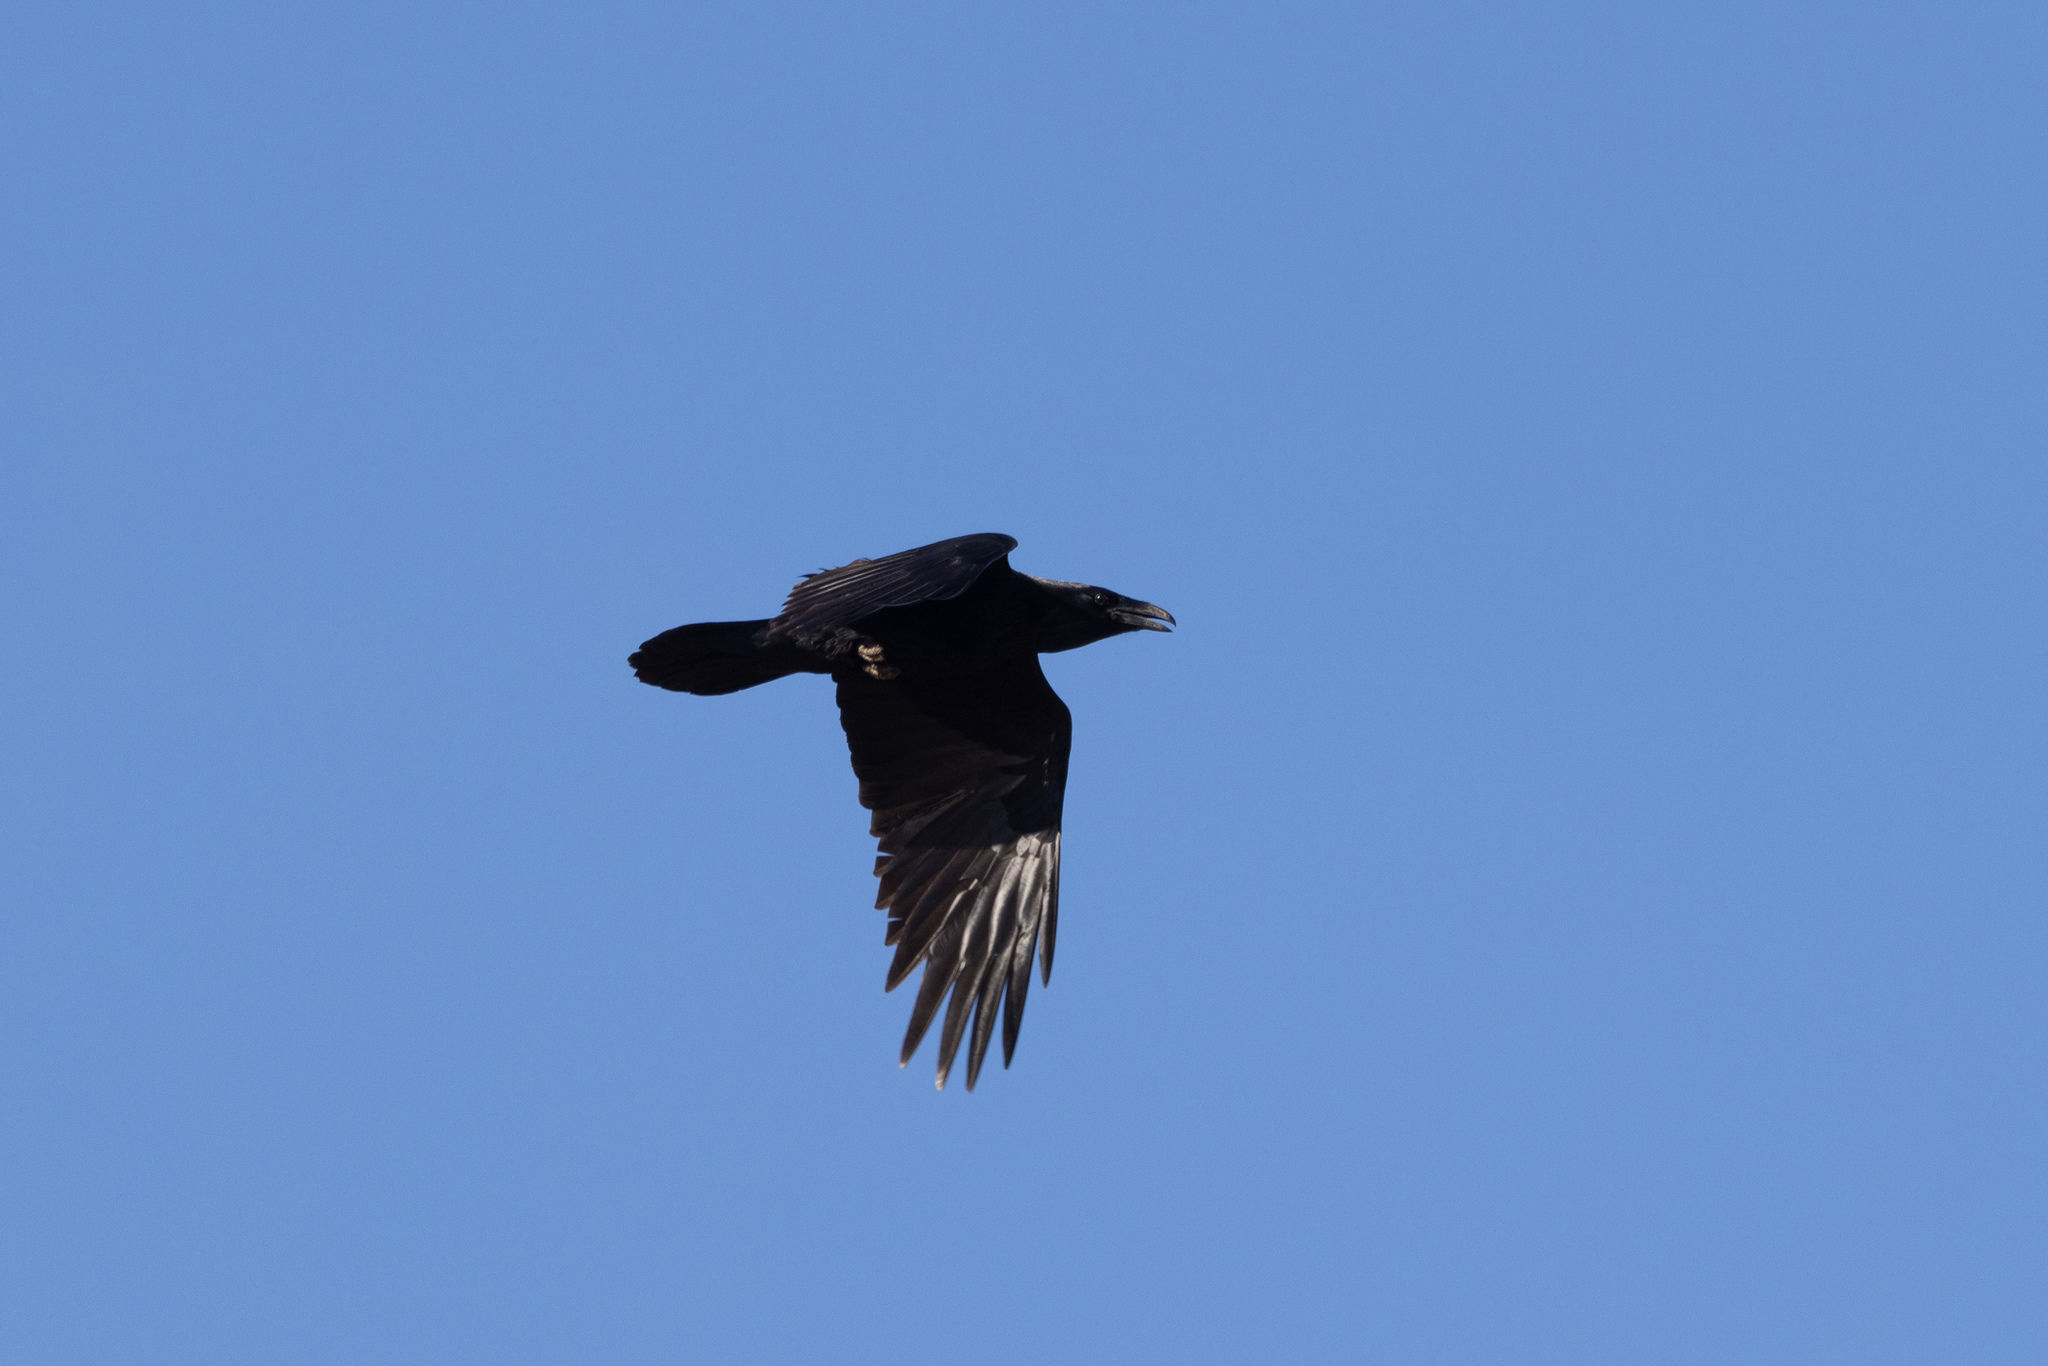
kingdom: Animalia
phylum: Chordata
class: Aves
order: Passeriformes
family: Corvidae
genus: Corvus
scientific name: Corvus corax
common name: Common raven
